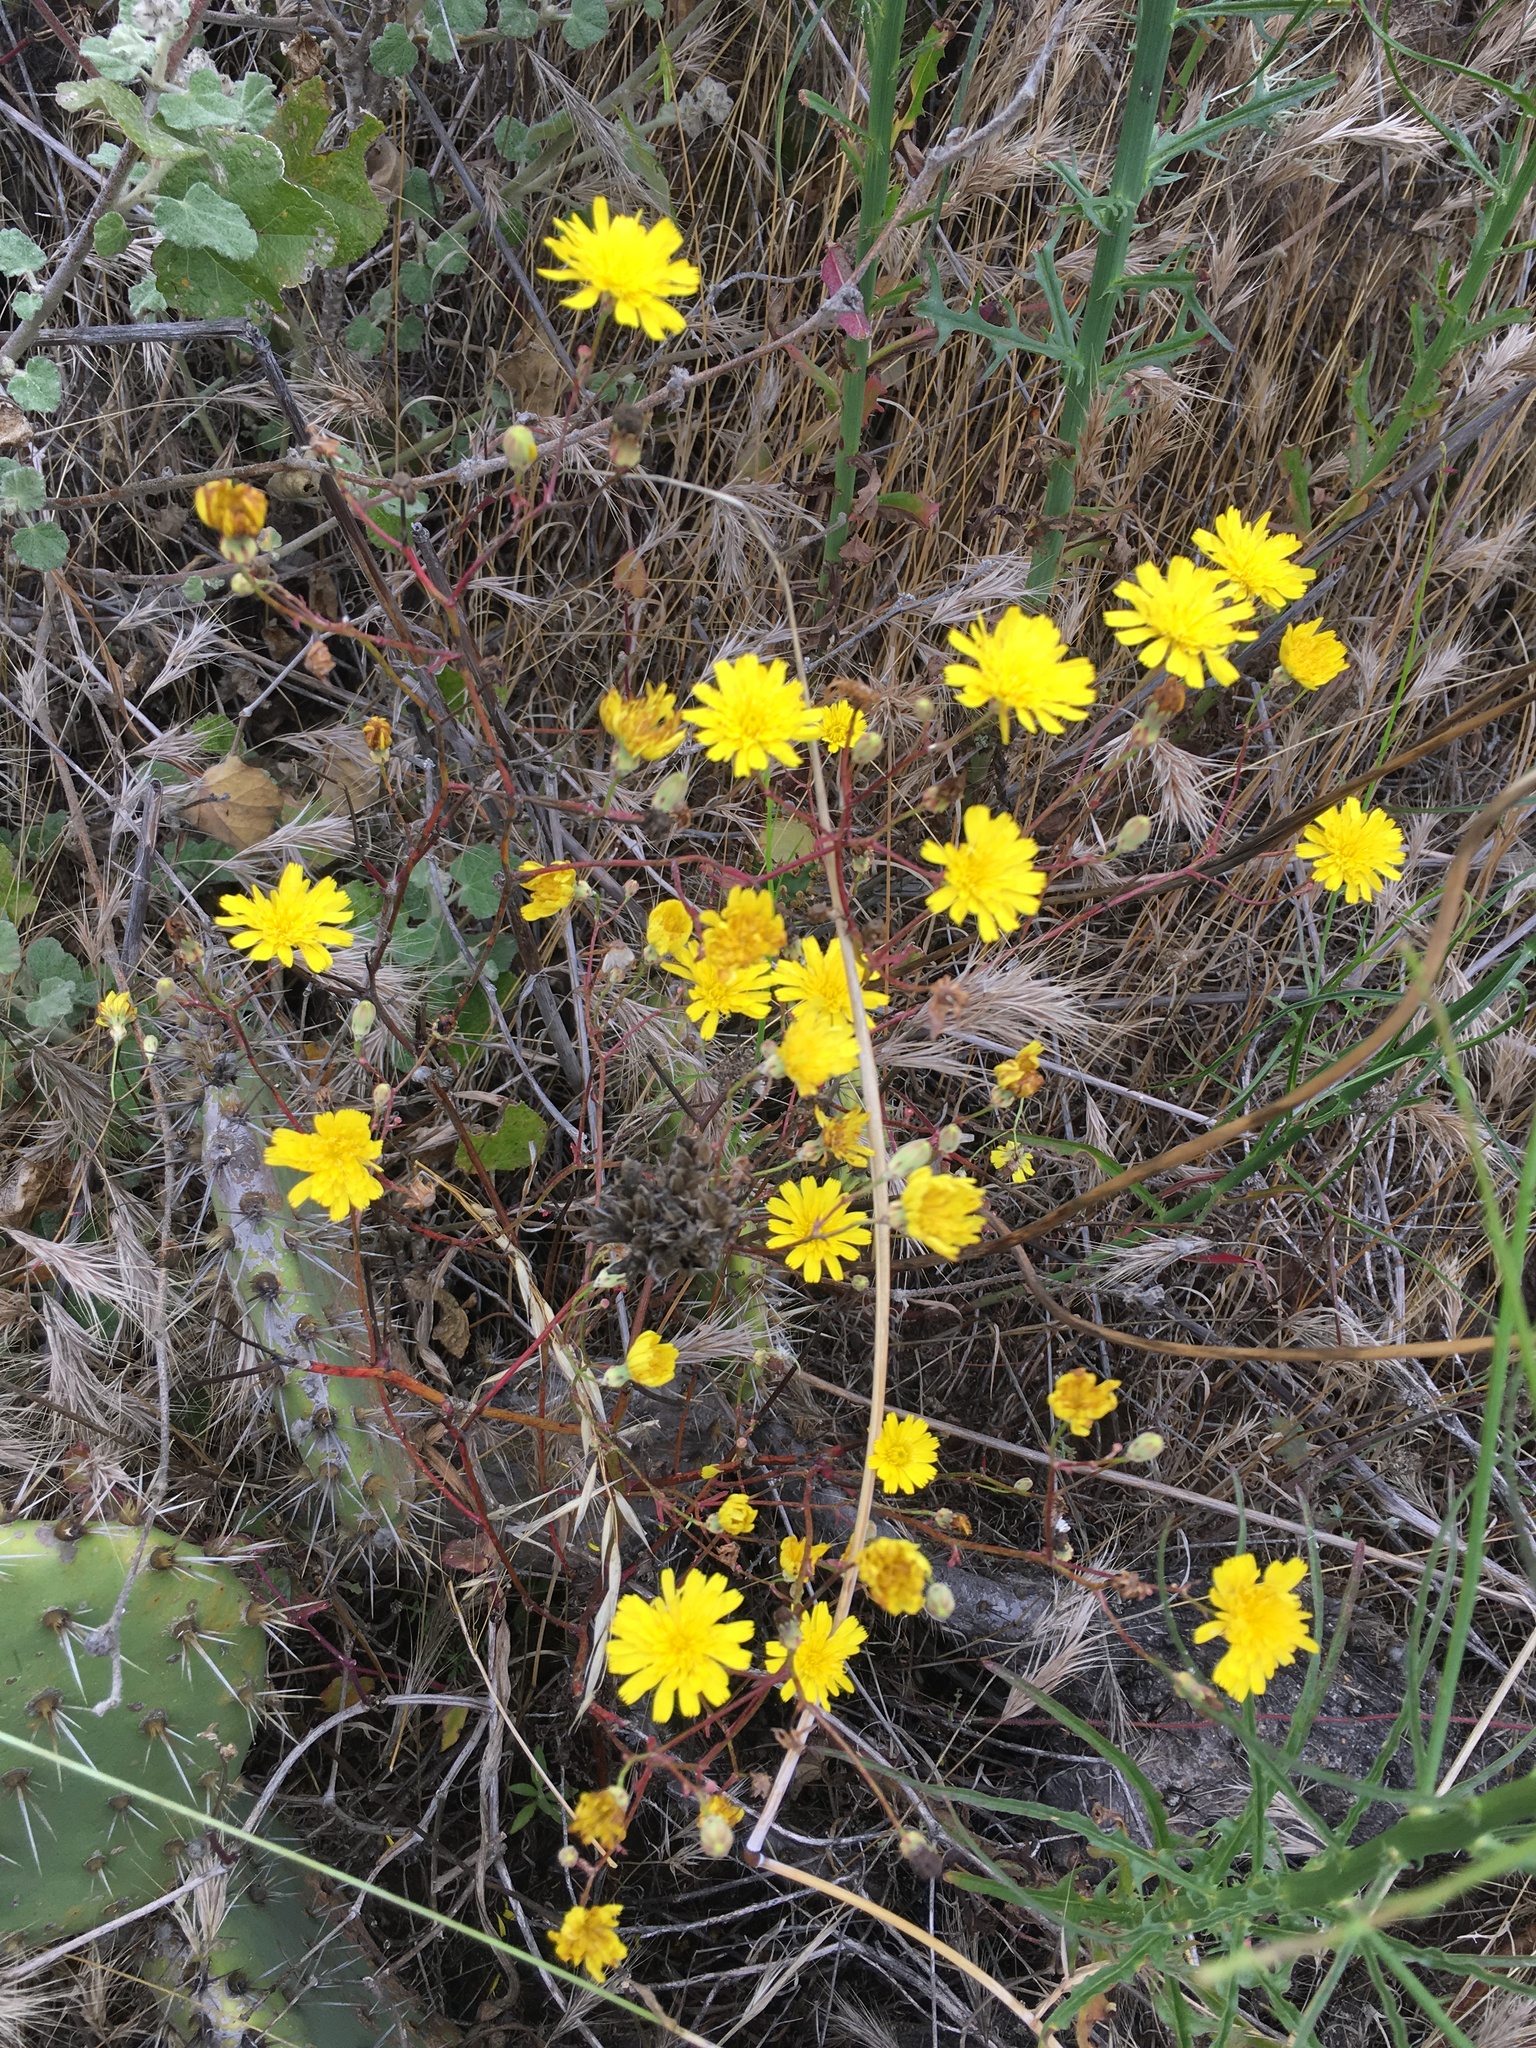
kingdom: Plantae
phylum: Tracheophyta
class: Magnoliopsida
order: Asterales
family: Asteraceae
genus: Malacothrix
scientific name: Malacothrix foliosa
